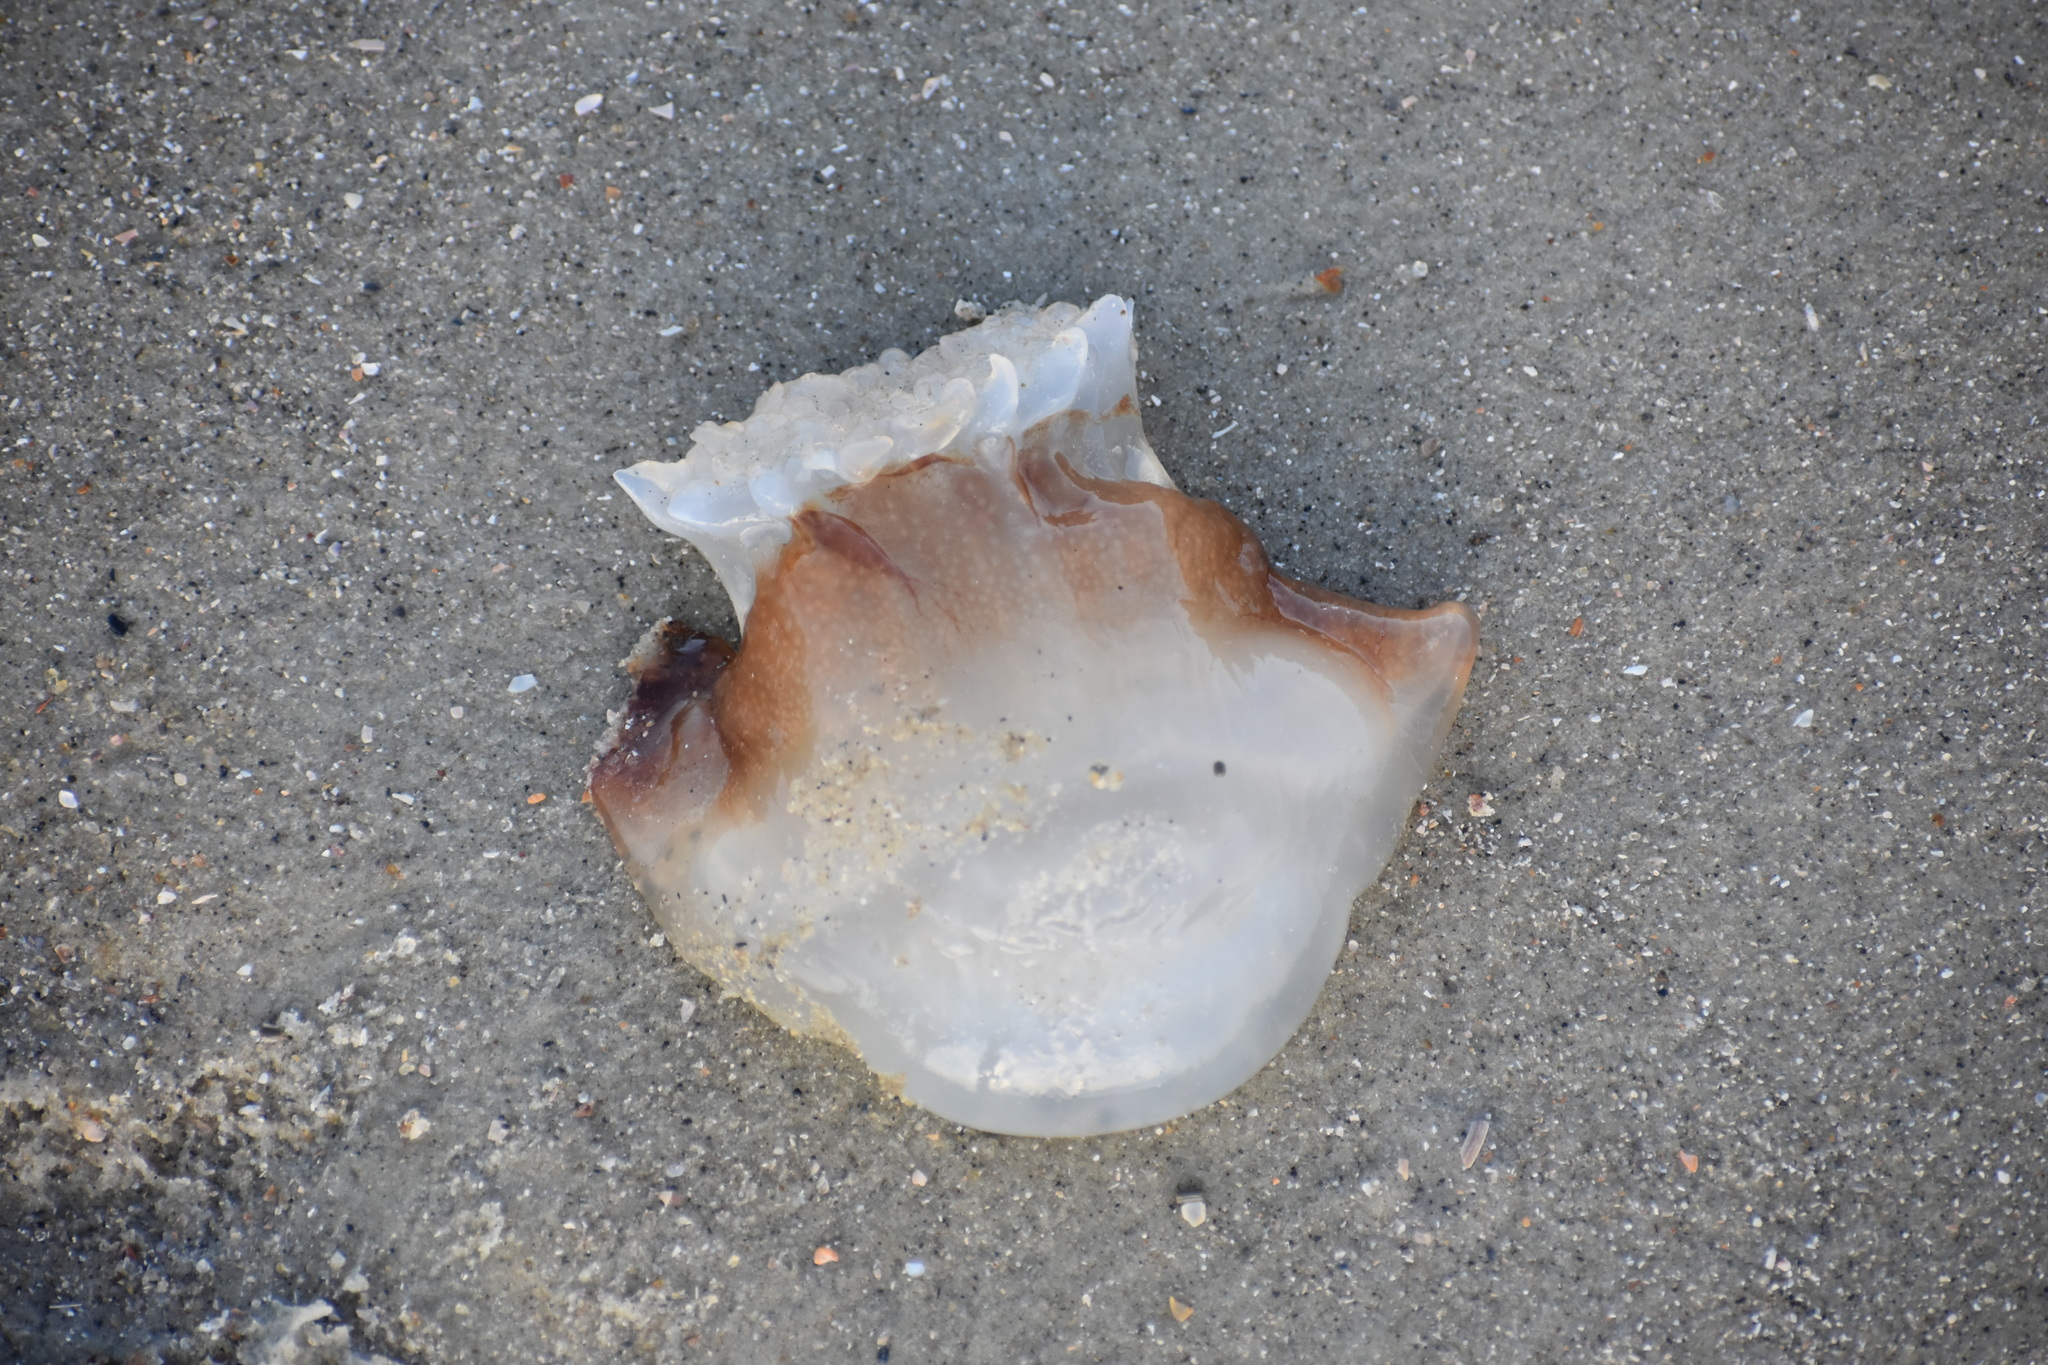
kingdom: Animalia
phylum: Cnidaria
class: Scyphozoa
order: Rhizostomeae
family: Stomolophidae
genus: Stomolophus
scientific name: Stomolophus meleagris
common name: Cabbagehead
